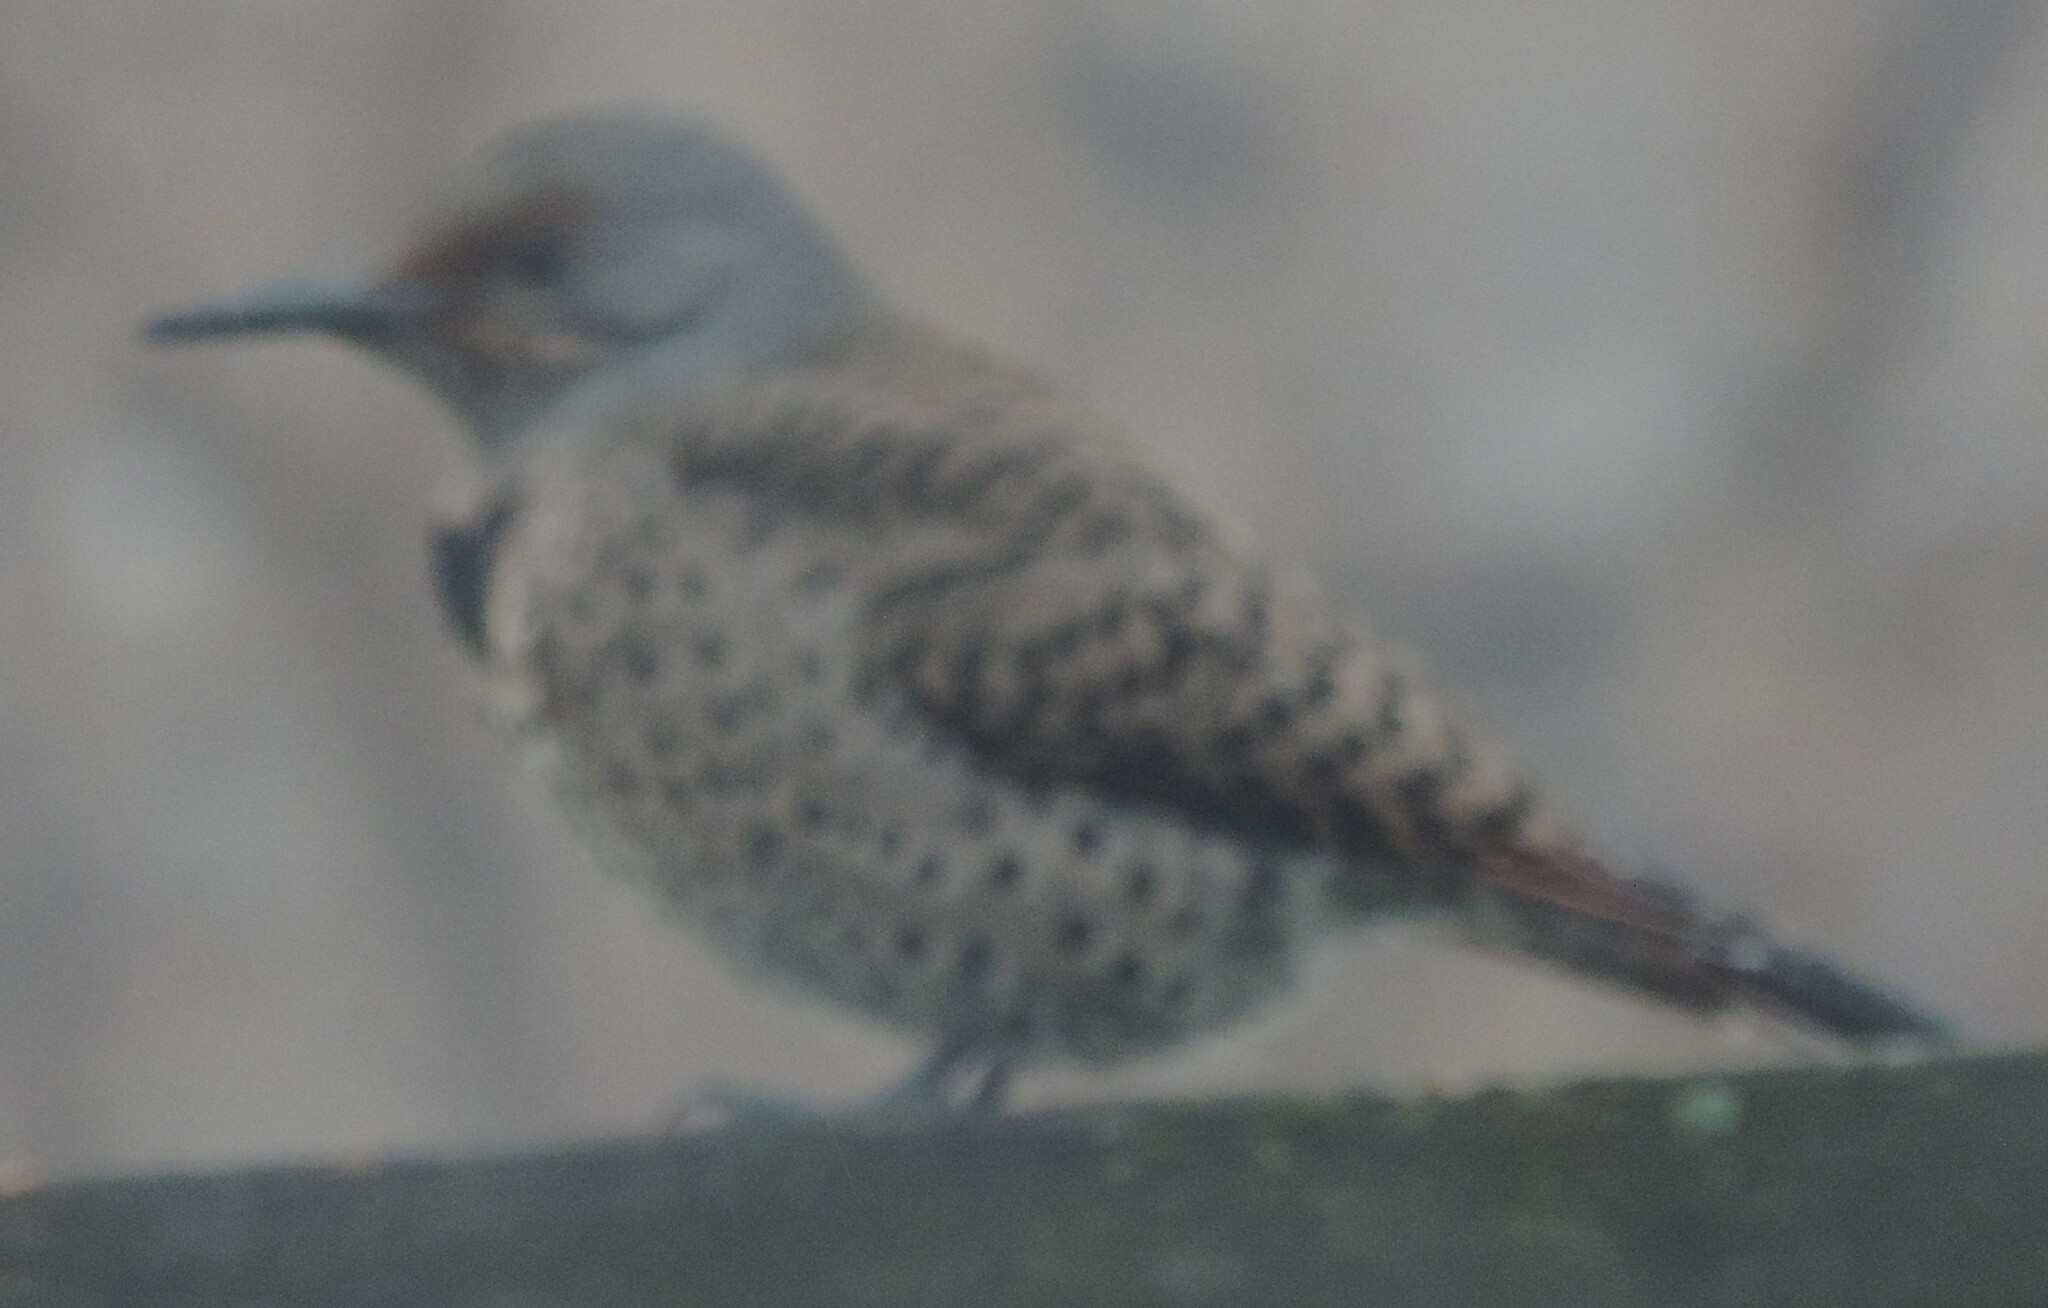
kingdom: Animalia
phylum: Chordata
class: Aves
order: Piciformes
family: Picidae
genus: Colaptes
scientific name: Colaptes auratus
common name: Northern flicker
